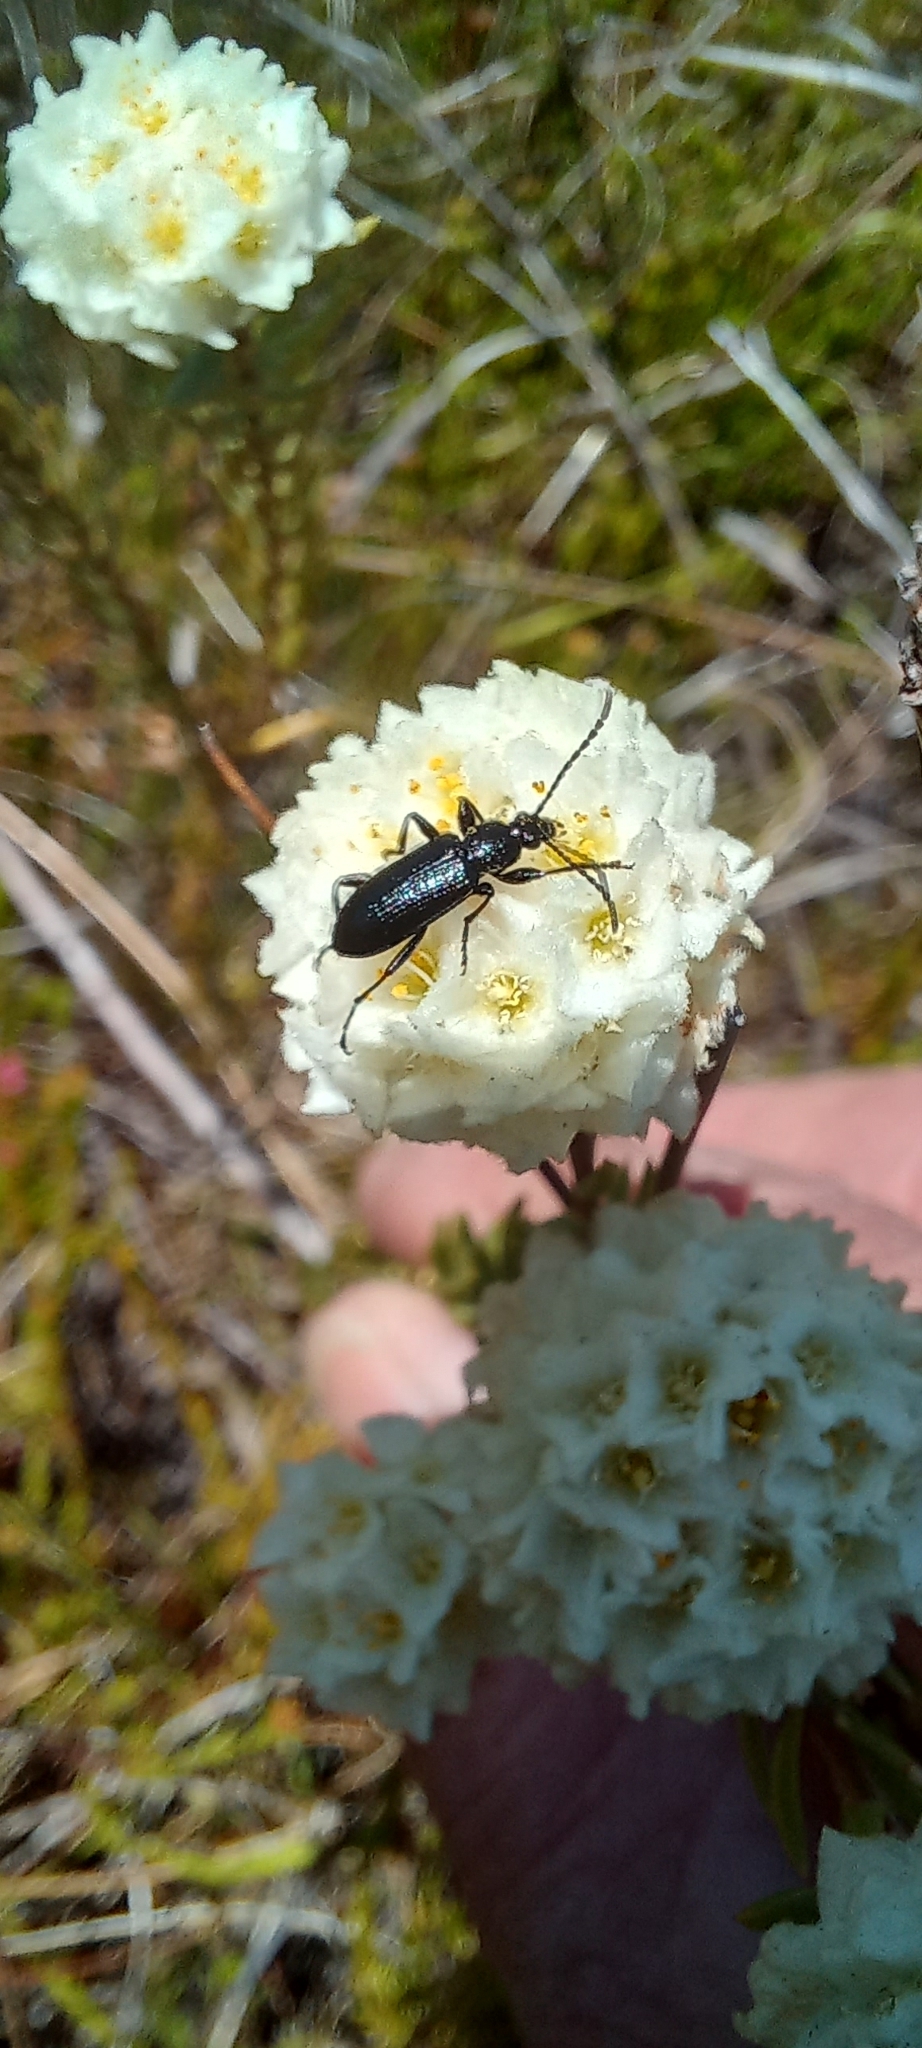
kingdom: Plantae
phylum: Tracheophyta
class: Magnoliopsida
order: Malvales
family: Thymelaeaceae
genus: Lachnaea
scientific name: Lachnaea densiflora
